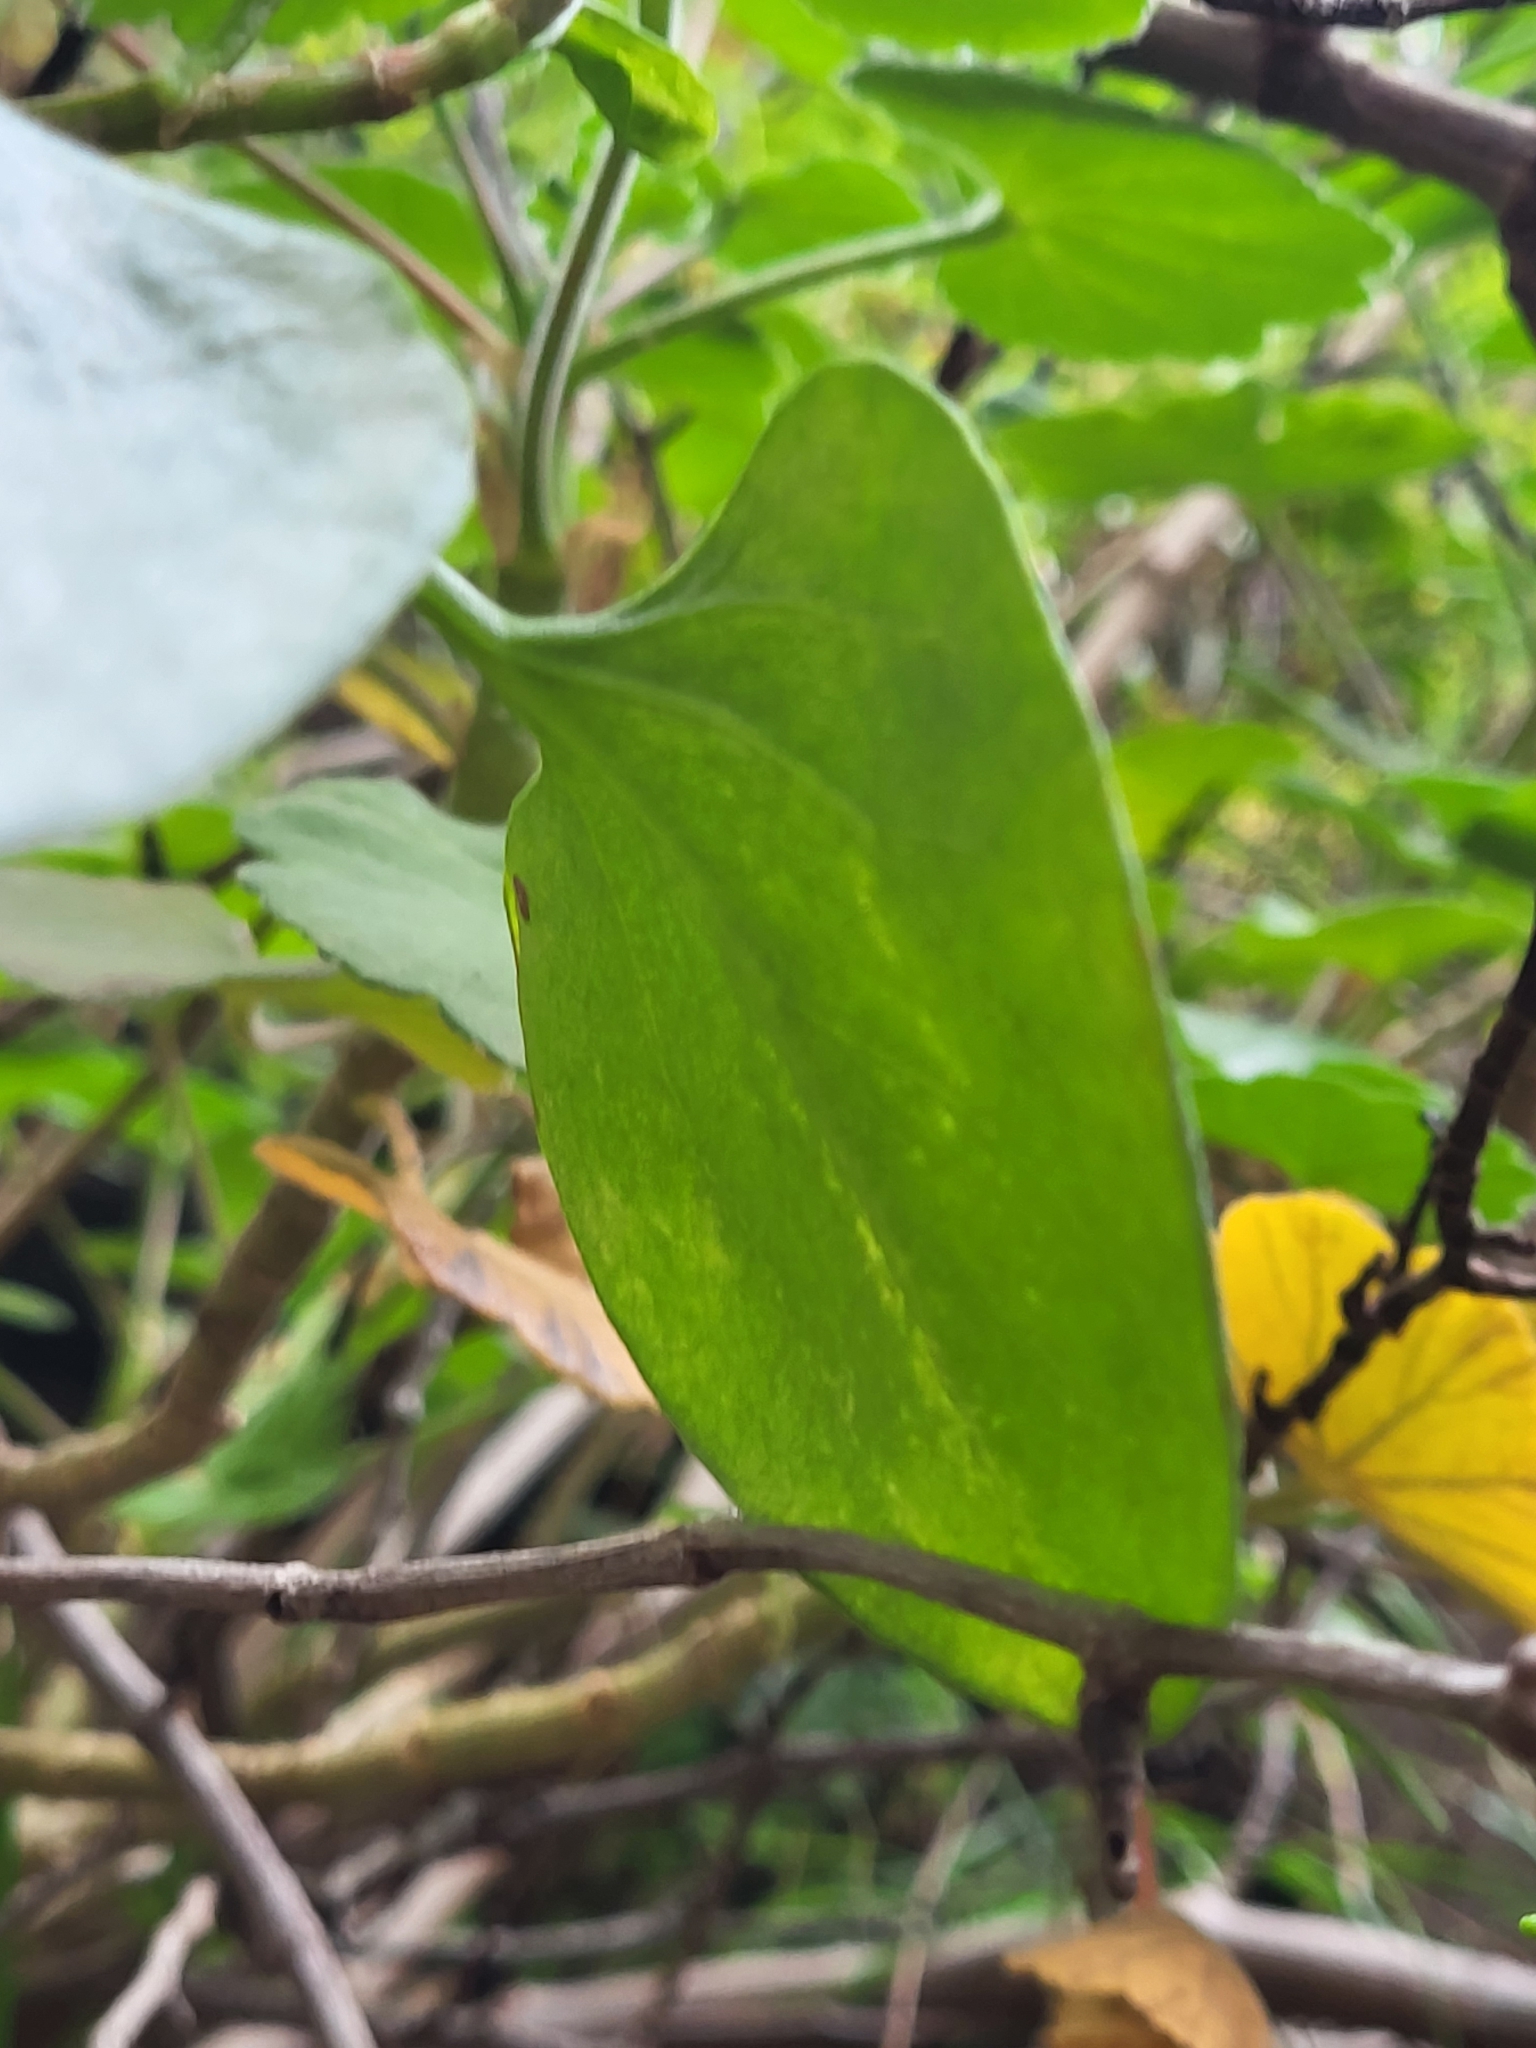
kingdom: Plantae
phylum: Tracheophyta
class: Magnoliopsida
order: Geraniales
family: Geraniaceae
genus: Pelargonium
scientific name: Pelargonium hybridum
